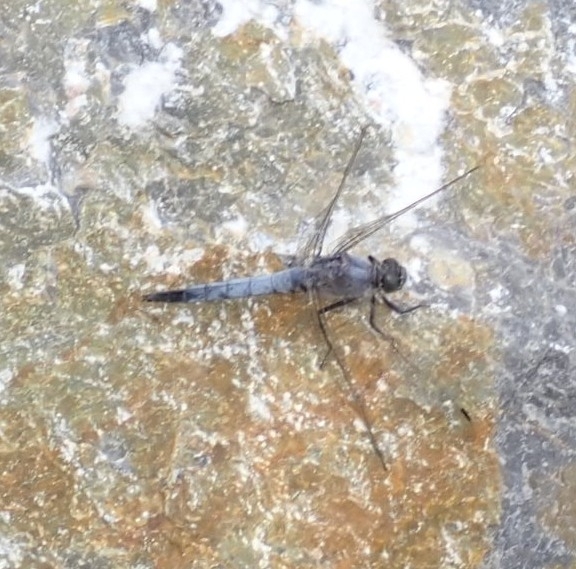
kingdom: Animalia
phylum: Arthropoda
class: Insecta
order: Odonata
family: Libellulidae
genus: Orthetrum
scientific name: Orthetrum cancellatum
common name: Black-tailed skimmer
